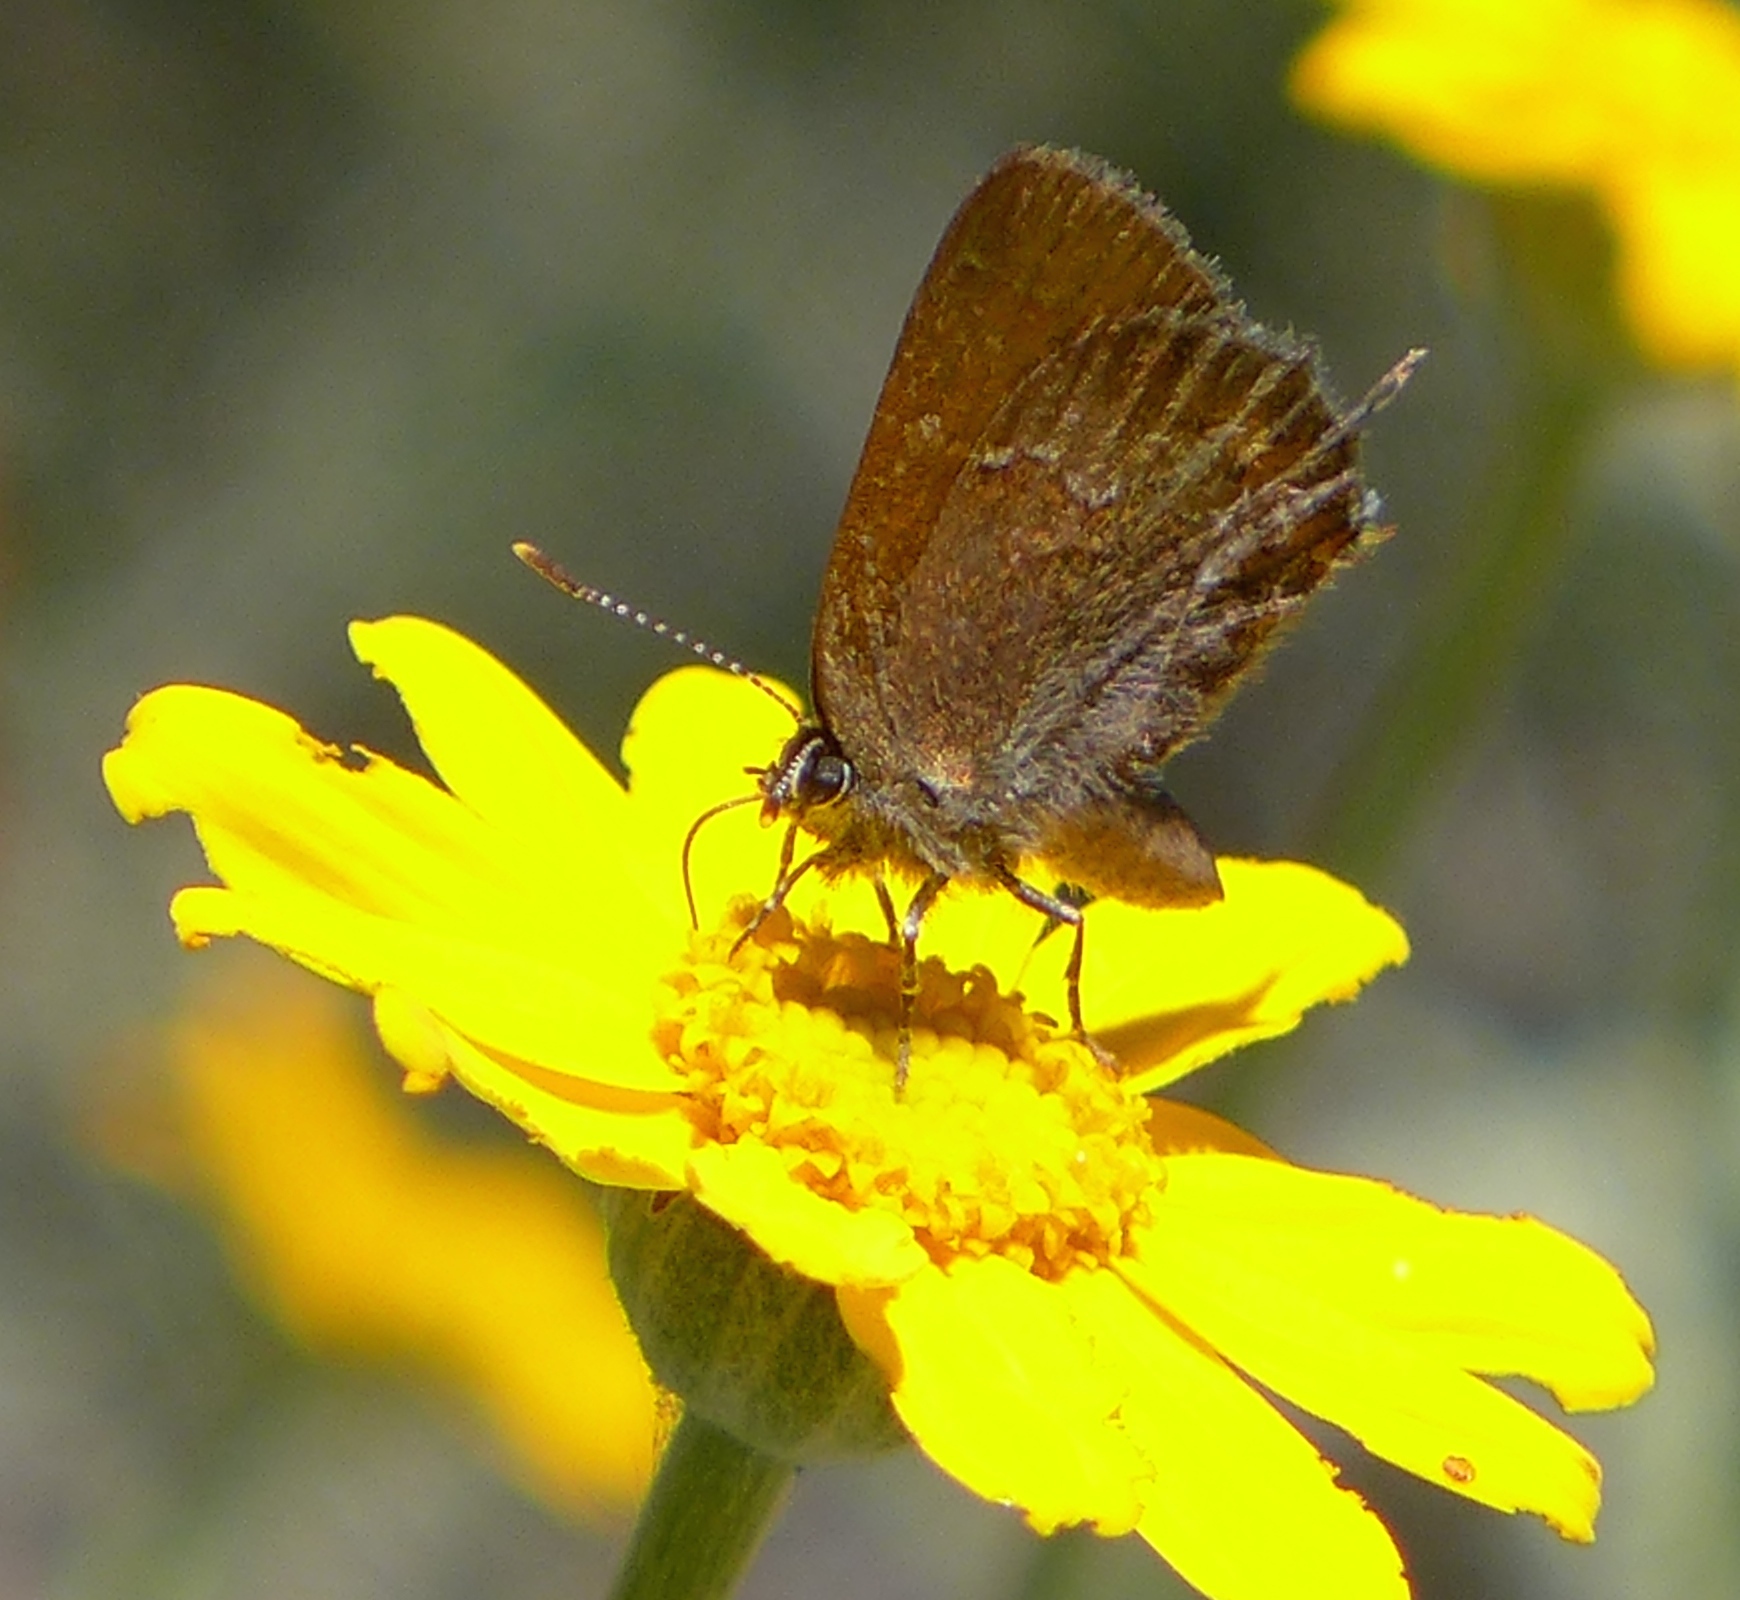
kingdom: Animalia
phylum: Arthropoda
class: Insecta
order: Lepidoptera
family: Lycaenidae
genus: Callophrys
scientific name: Callophrys muiri
